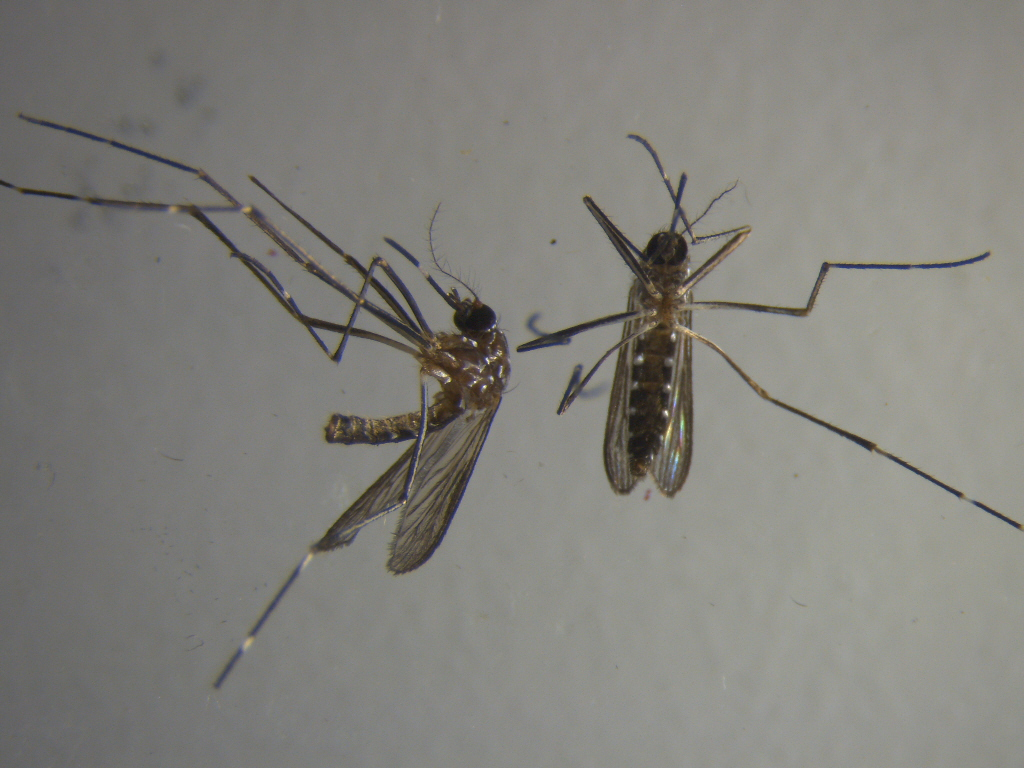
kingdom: Animalia
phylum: Arthropoda
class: Insecta
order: Diptera
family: Culicidae
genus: Aedes
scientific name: Aedes notoscriptus
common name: Australian backyard mosquito
